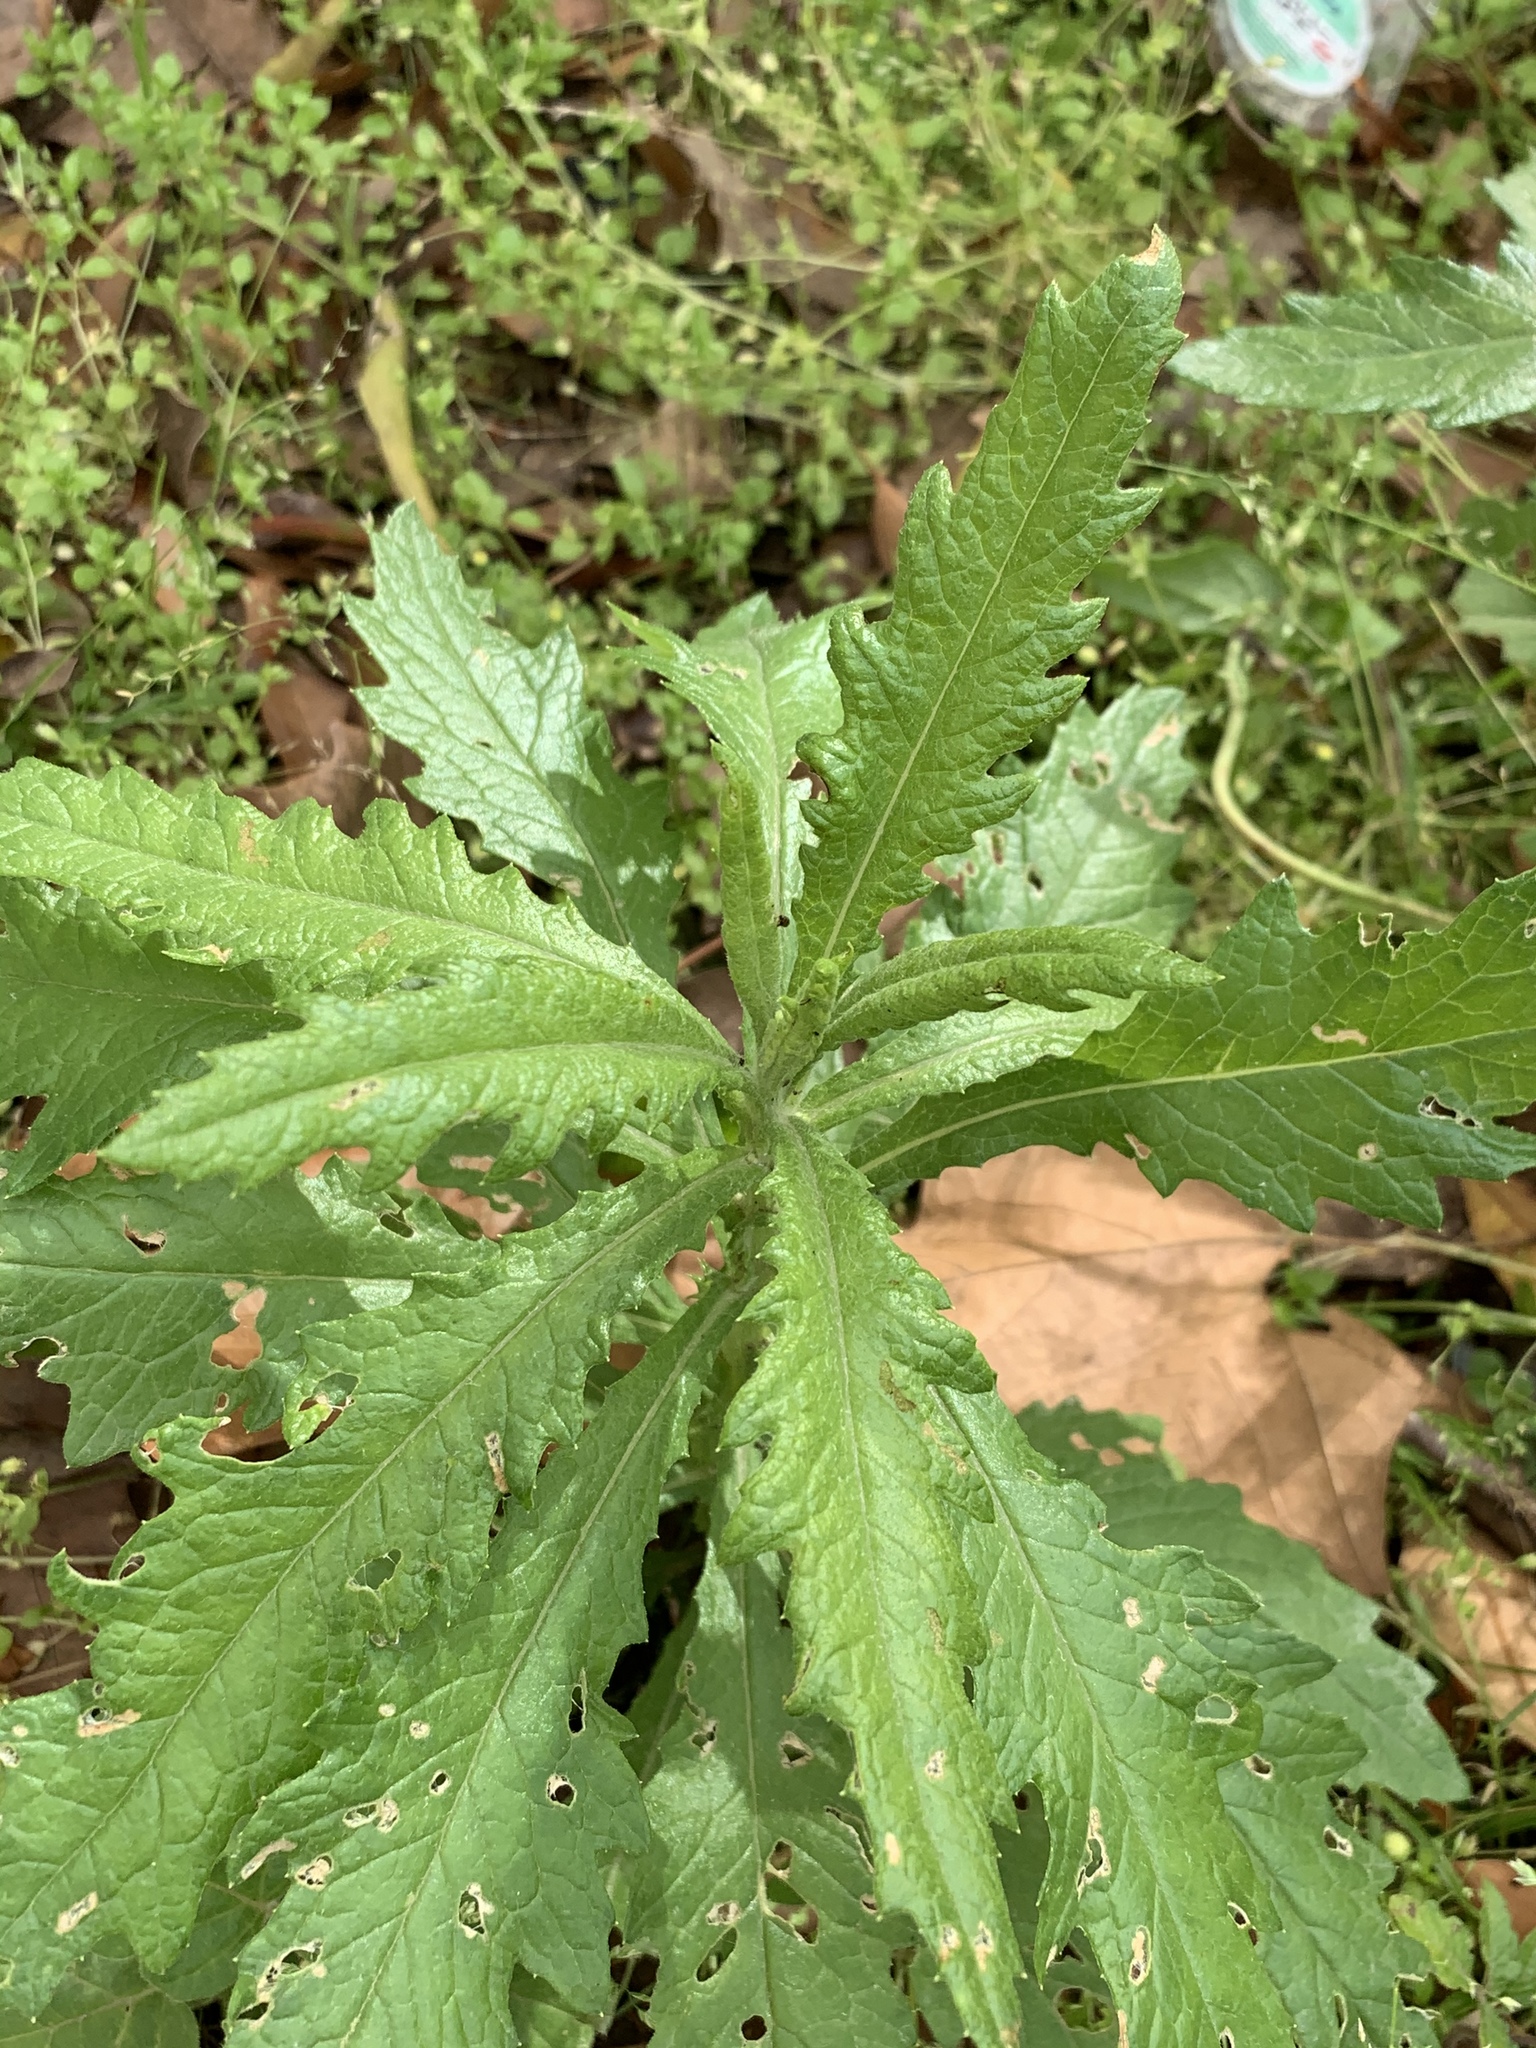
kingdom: Plantae
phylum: Tracheophyta
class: Magnoliopsida
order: Asterales
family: Asteraceae
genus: Senecio
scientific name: Senecio pterophorus
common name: Shoddy ragwort
